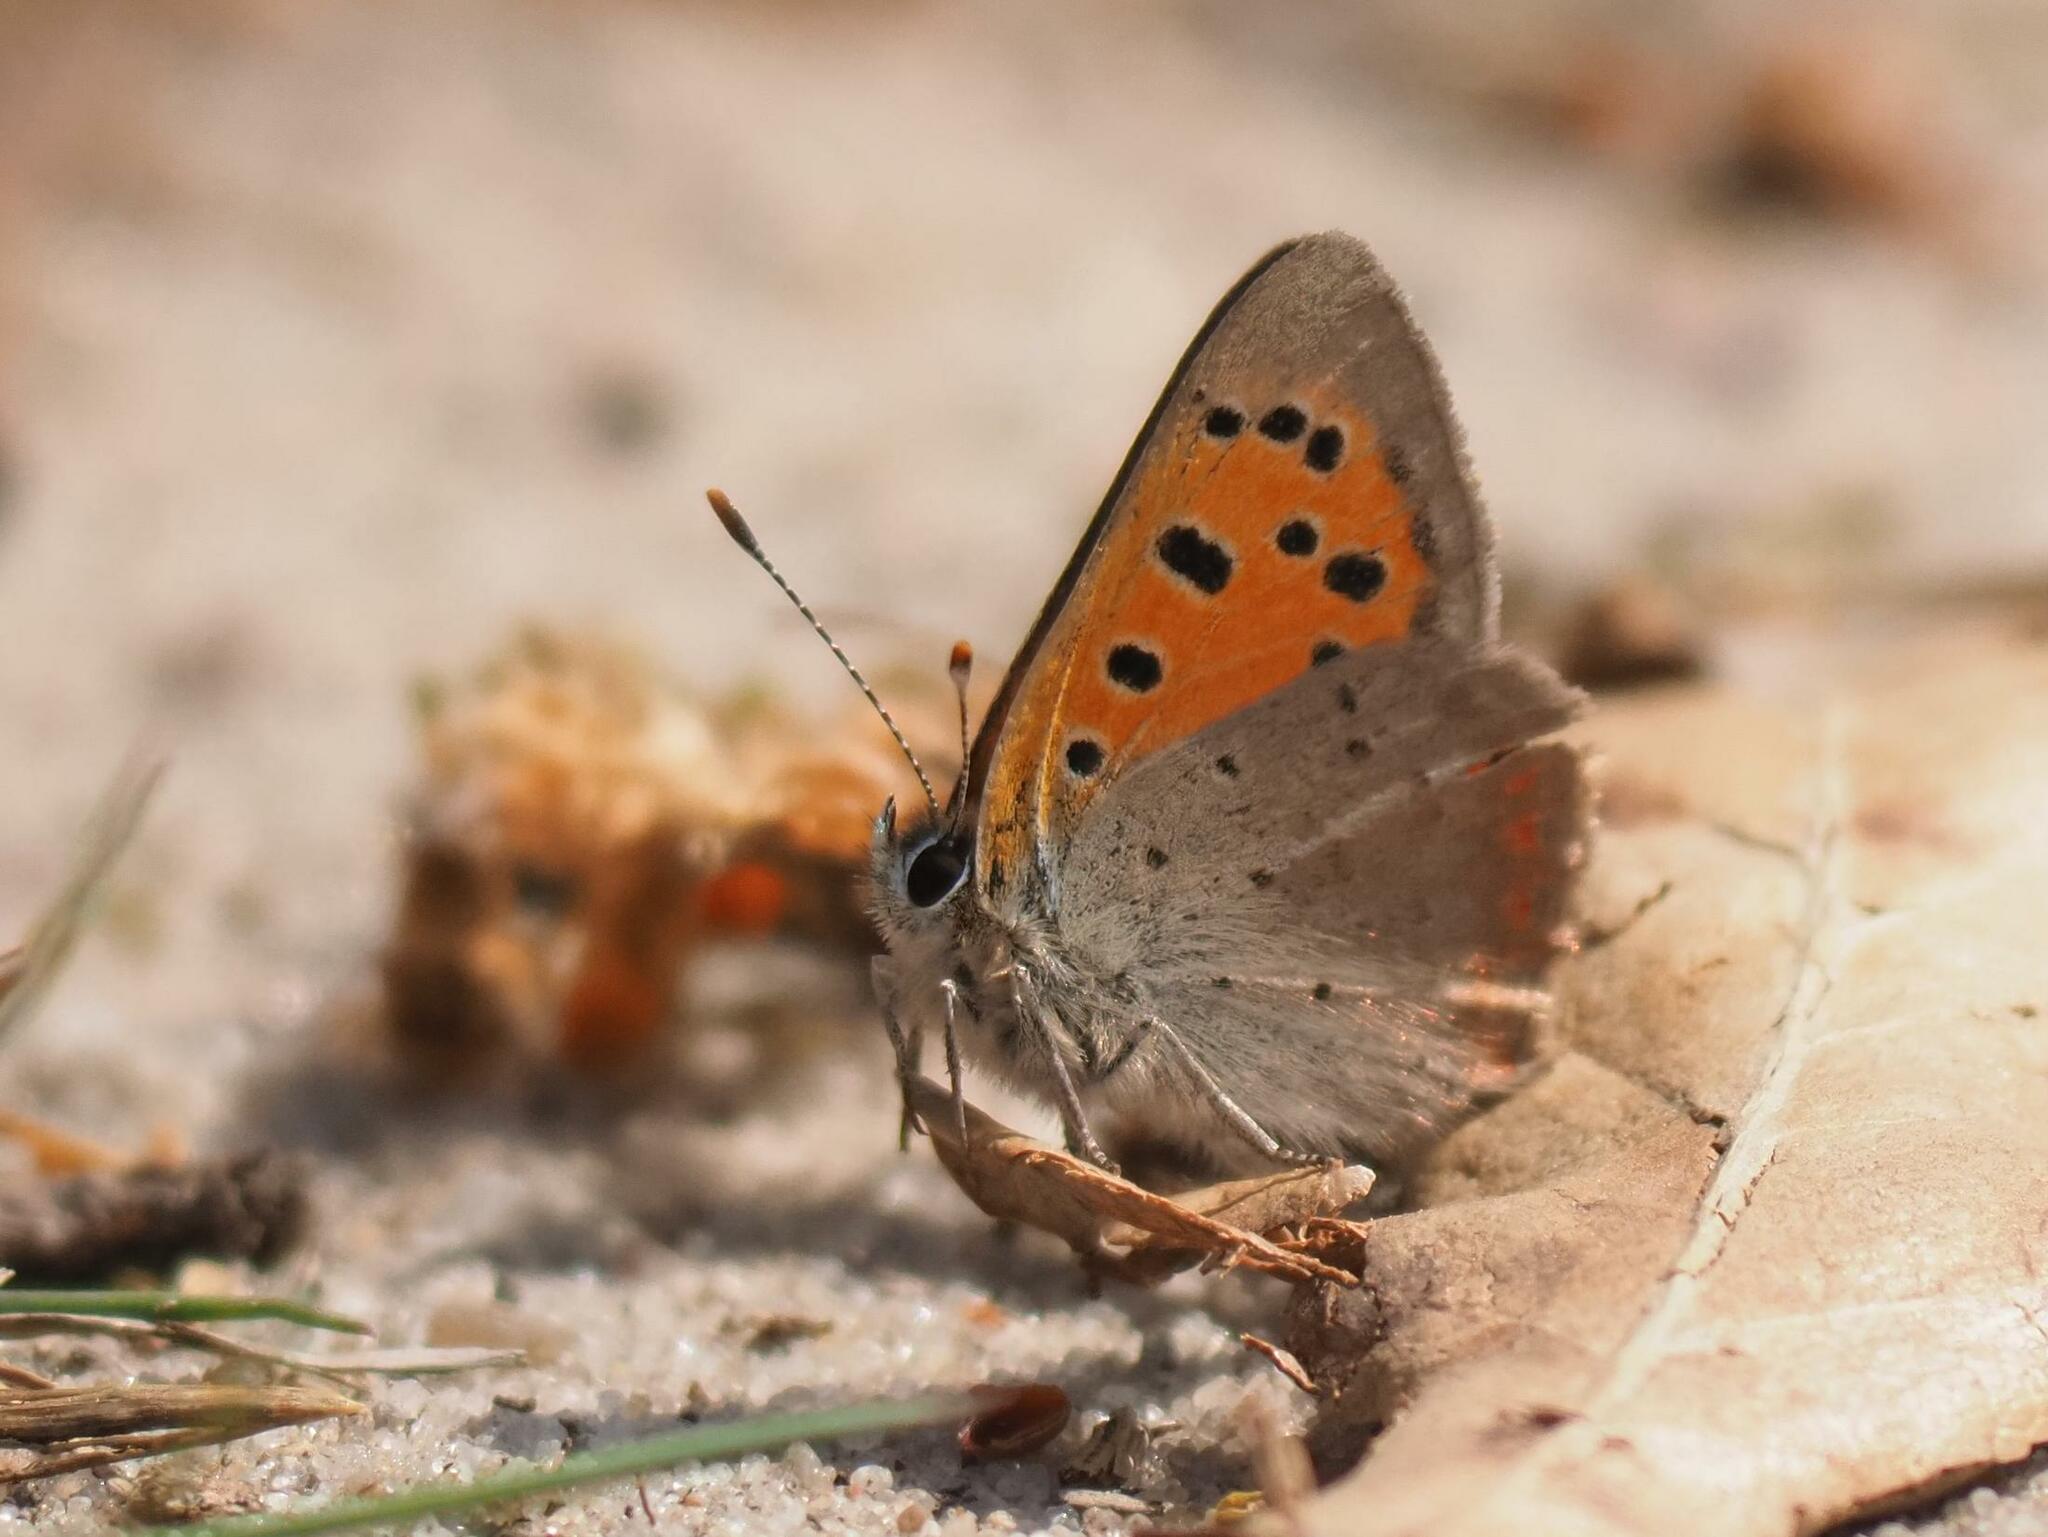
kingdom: Animalia
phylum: Arthropoda
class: Insecta
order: Lepidoptera
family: Lycaenidae
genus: Lycaena
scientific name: Lycaena phlaeas
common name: Small copper
